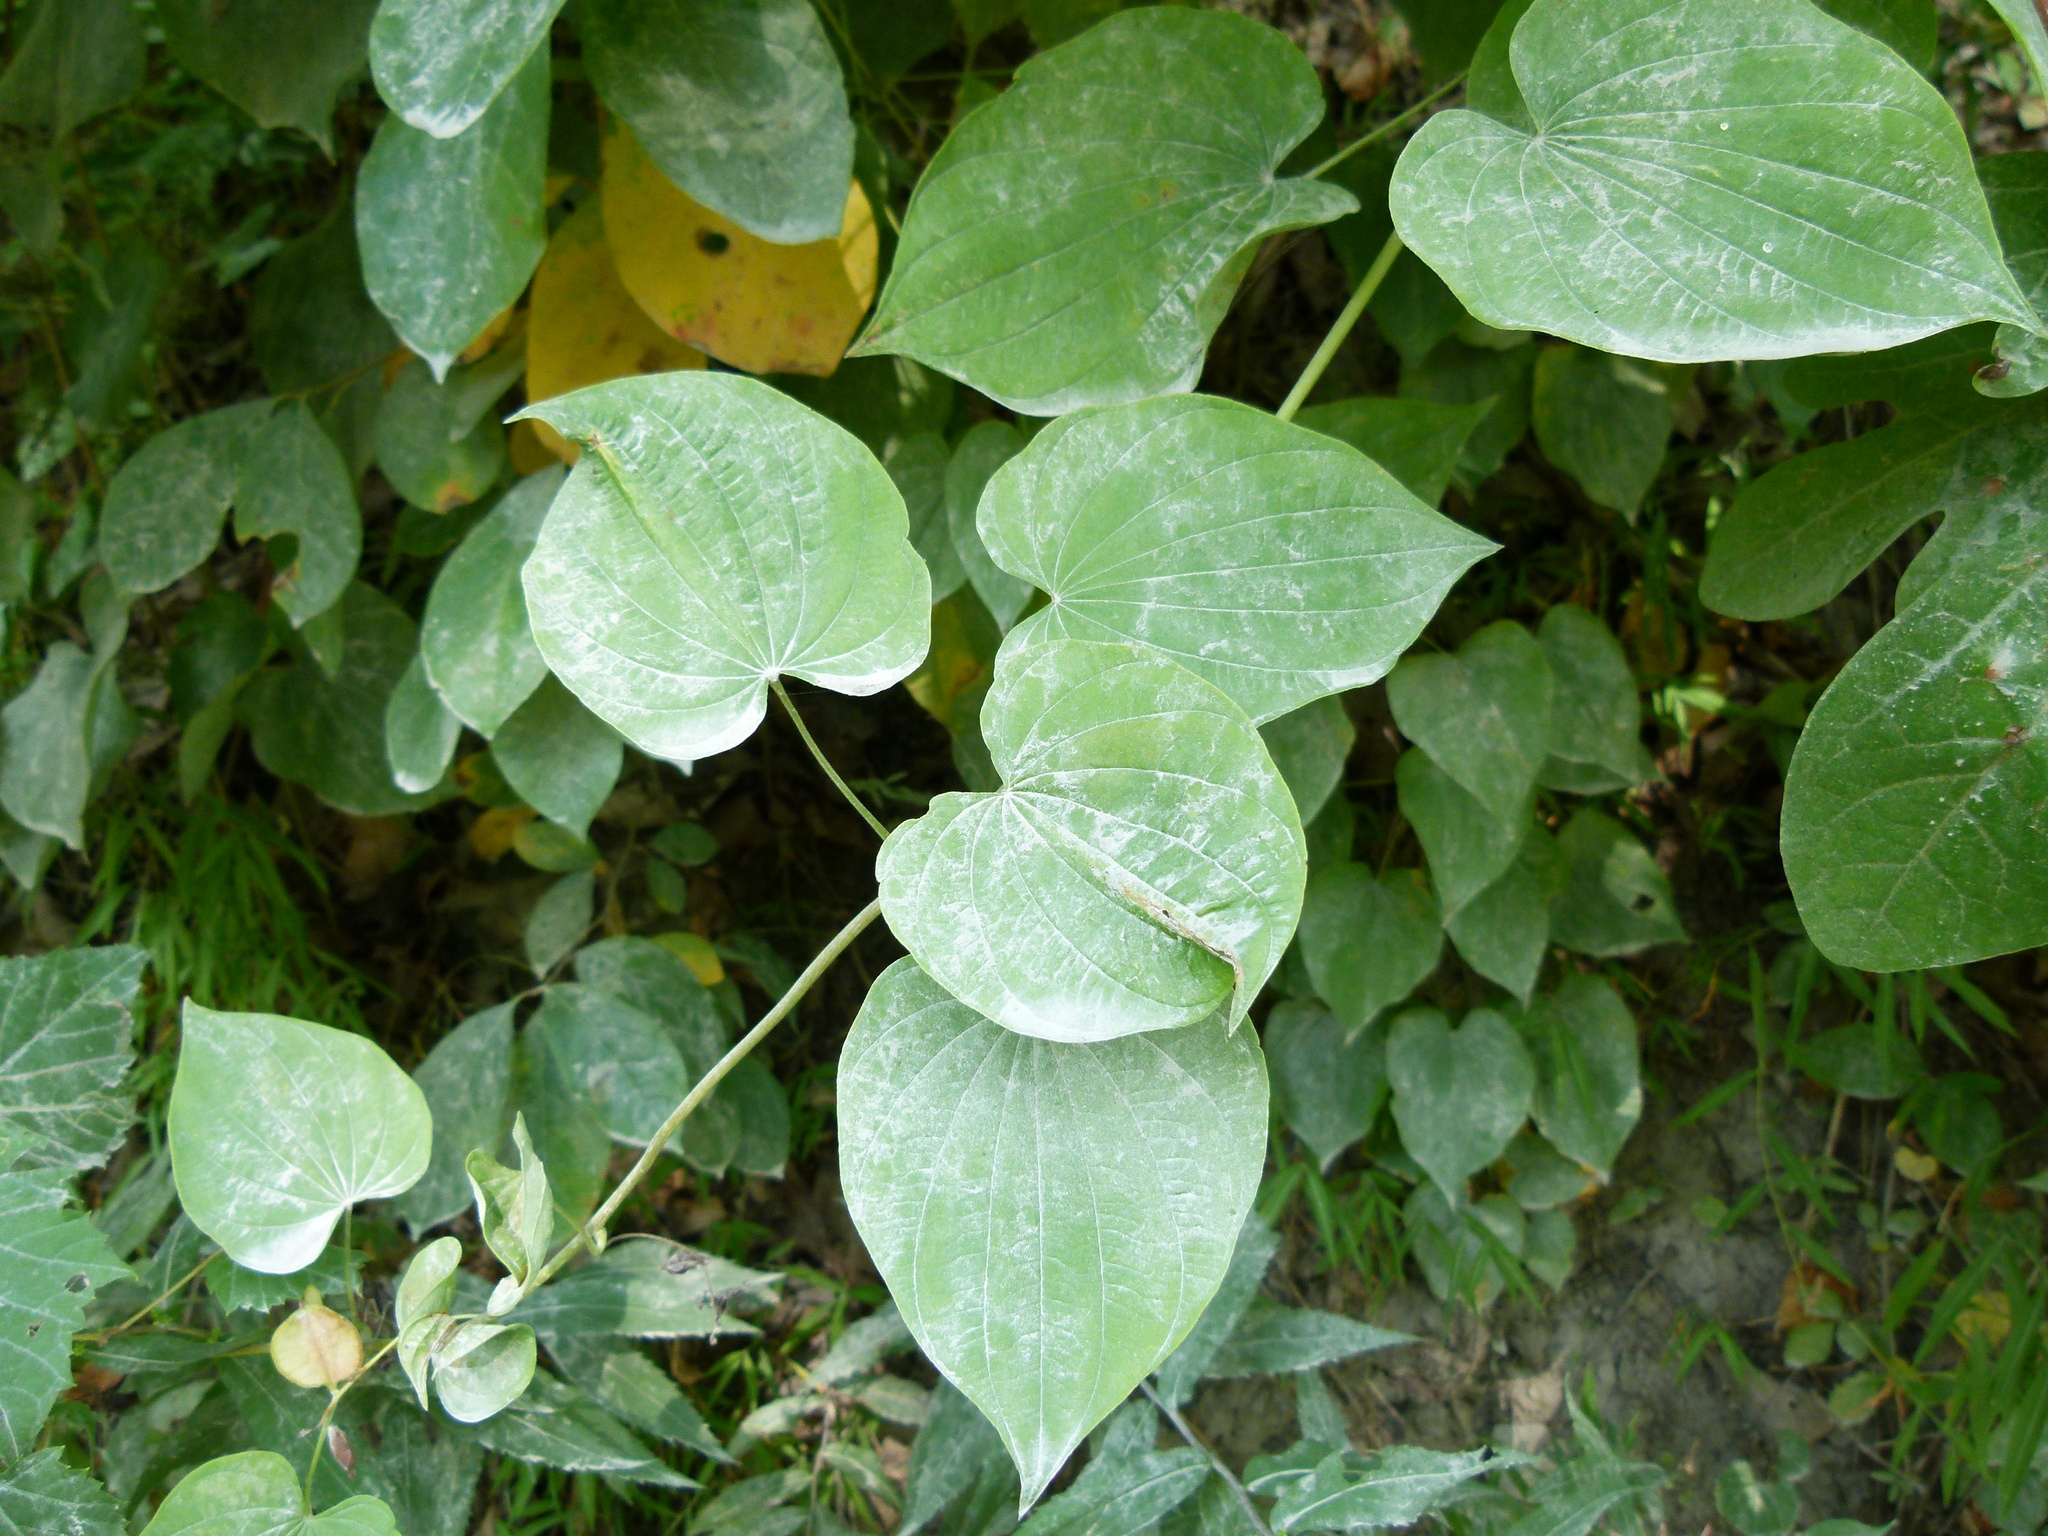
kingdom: Plantae
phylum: Tracheophyta
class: Liliopsida
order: Dioscoreales
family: Dioscoreaceae
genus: Dioscorea
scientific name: Dioscorea villosa
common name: Wild yam
